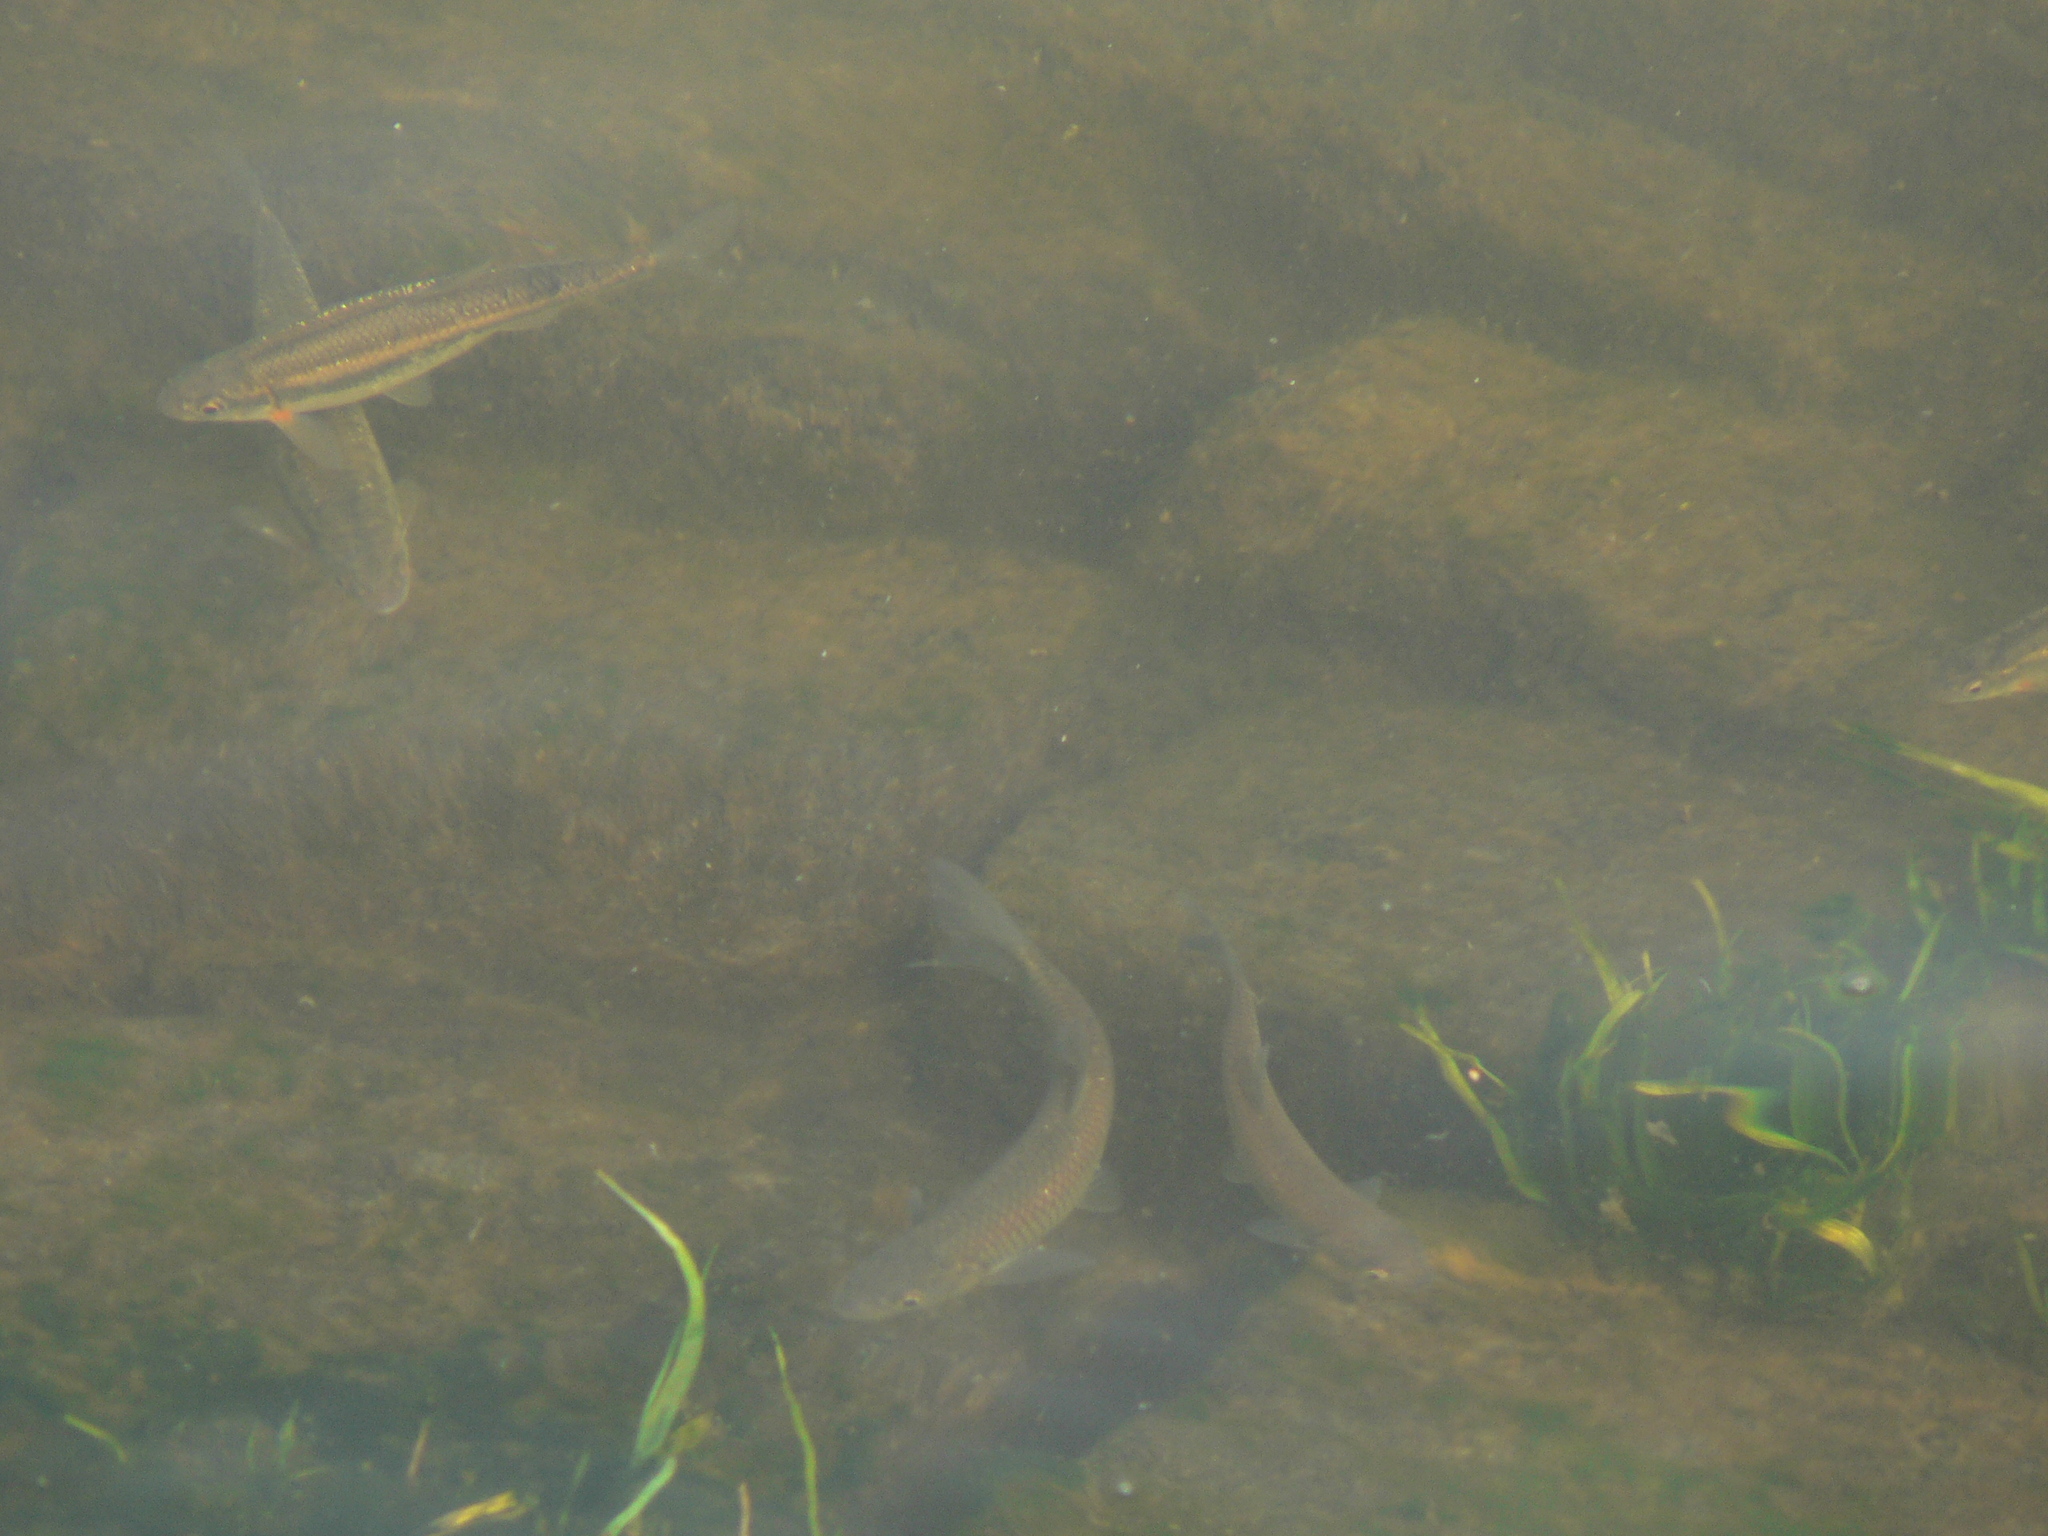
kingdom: Animalia
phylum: Chordata
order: Cypriniformes
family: Cyprinidae
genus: Telestes
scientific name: Telestes muticellus
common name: Italian riffle dace
